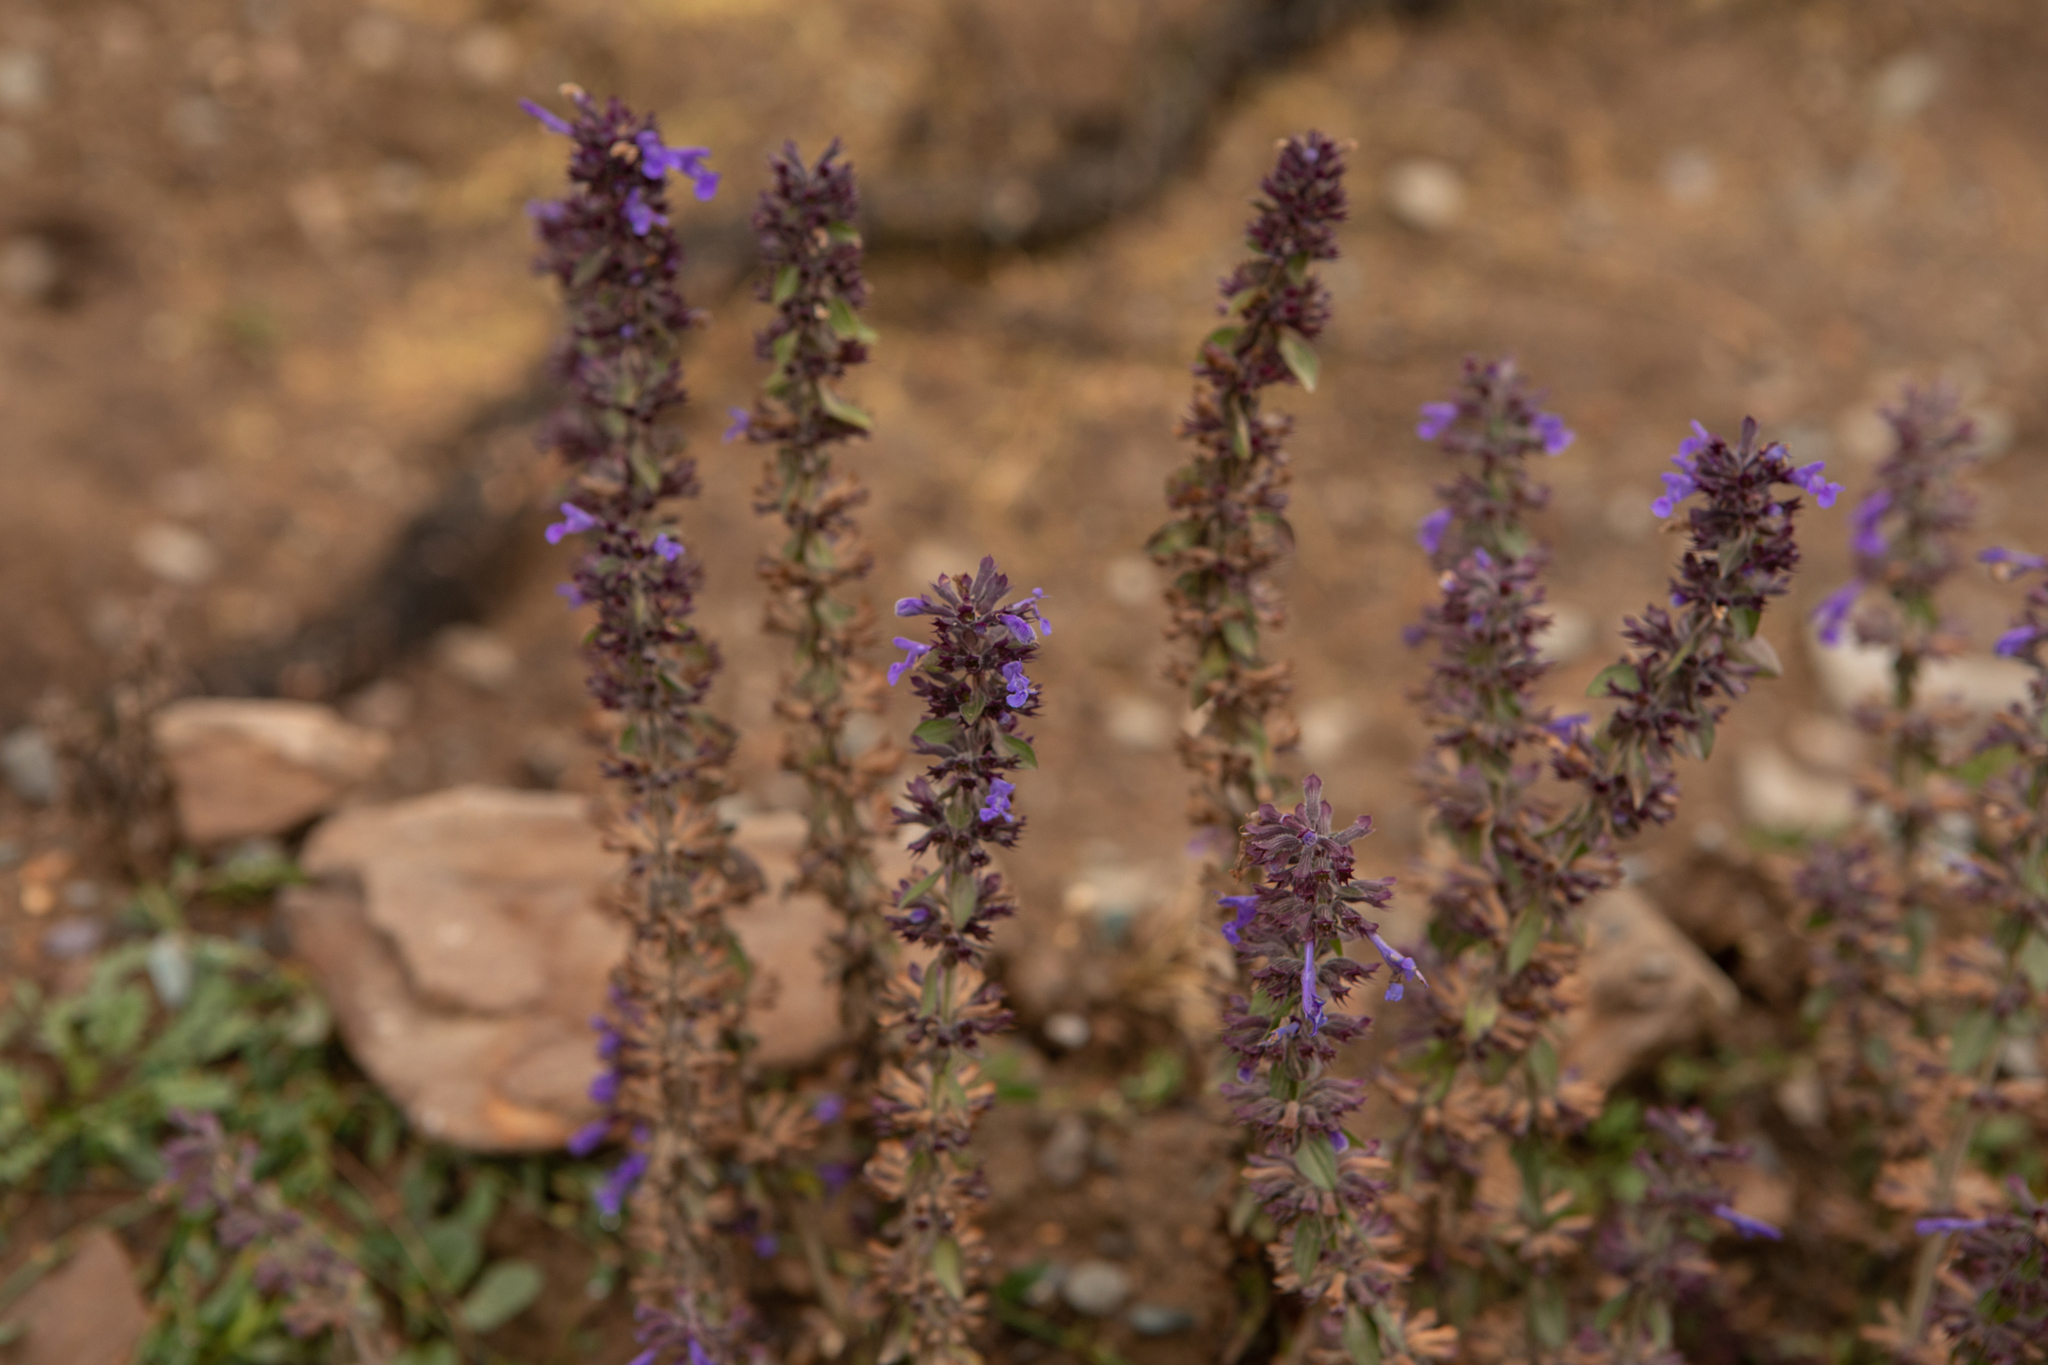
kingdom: Plantae
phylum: Tracheophyta
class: Magnoliopsida
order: Lamiales
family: Lamiaceae
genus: Dracocephalum
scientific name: Dracocephalum nutans
